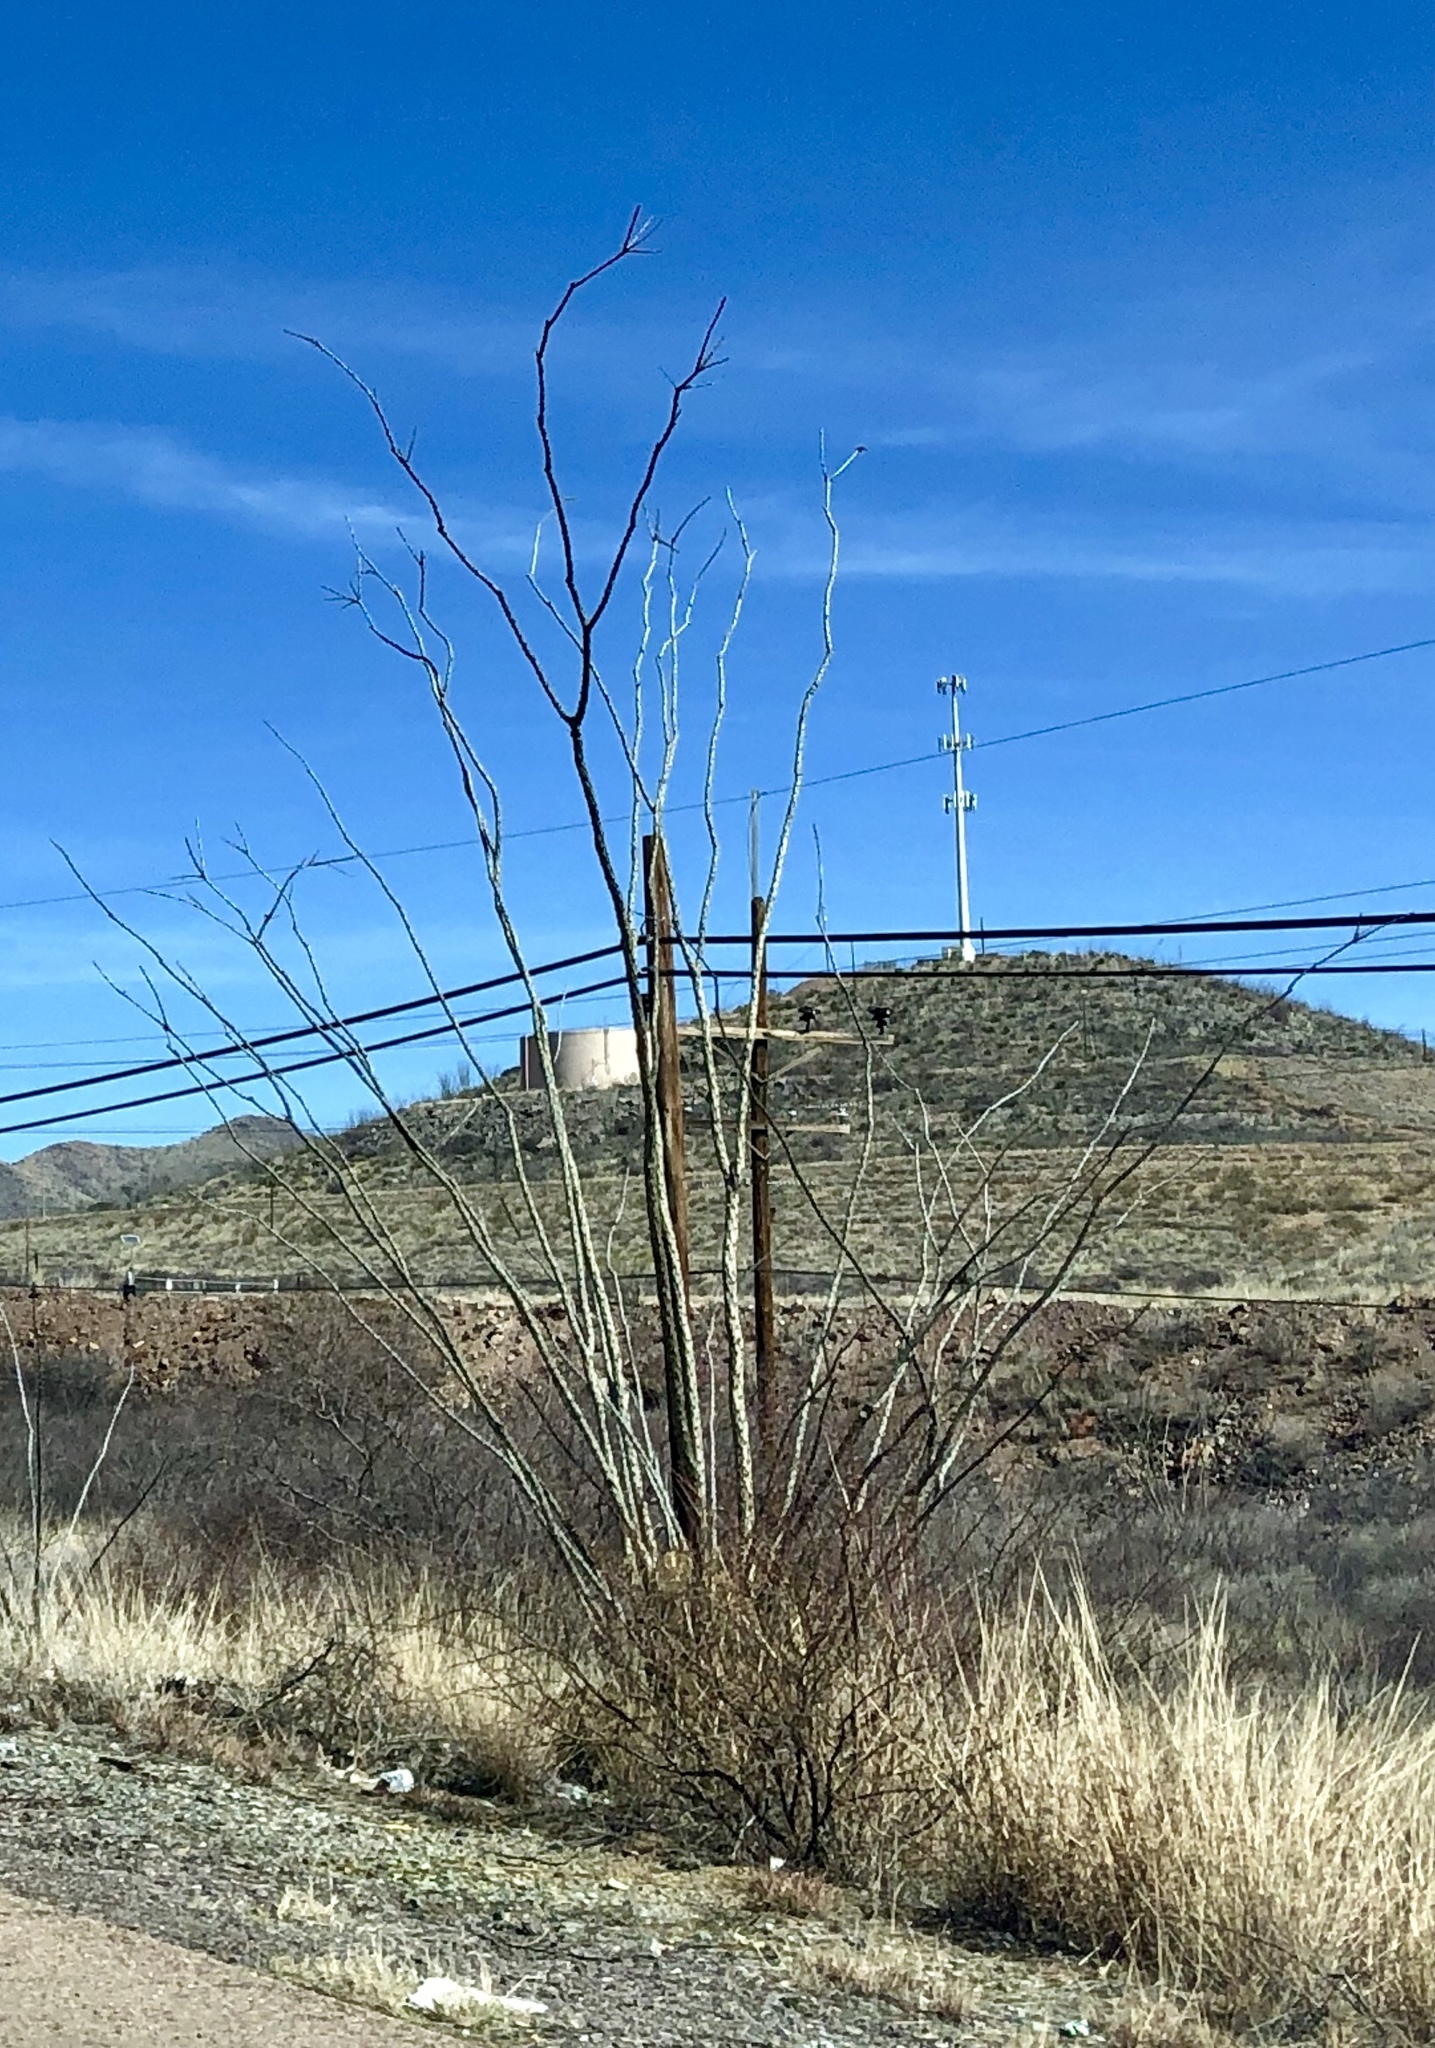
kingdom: Plantae
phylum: Tracheophyta
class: Magnoliopsida
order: Ericales
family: Fouquieriaceae
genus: Fouquieria
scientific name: Fouquieria splendens
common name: Vine-cactus
